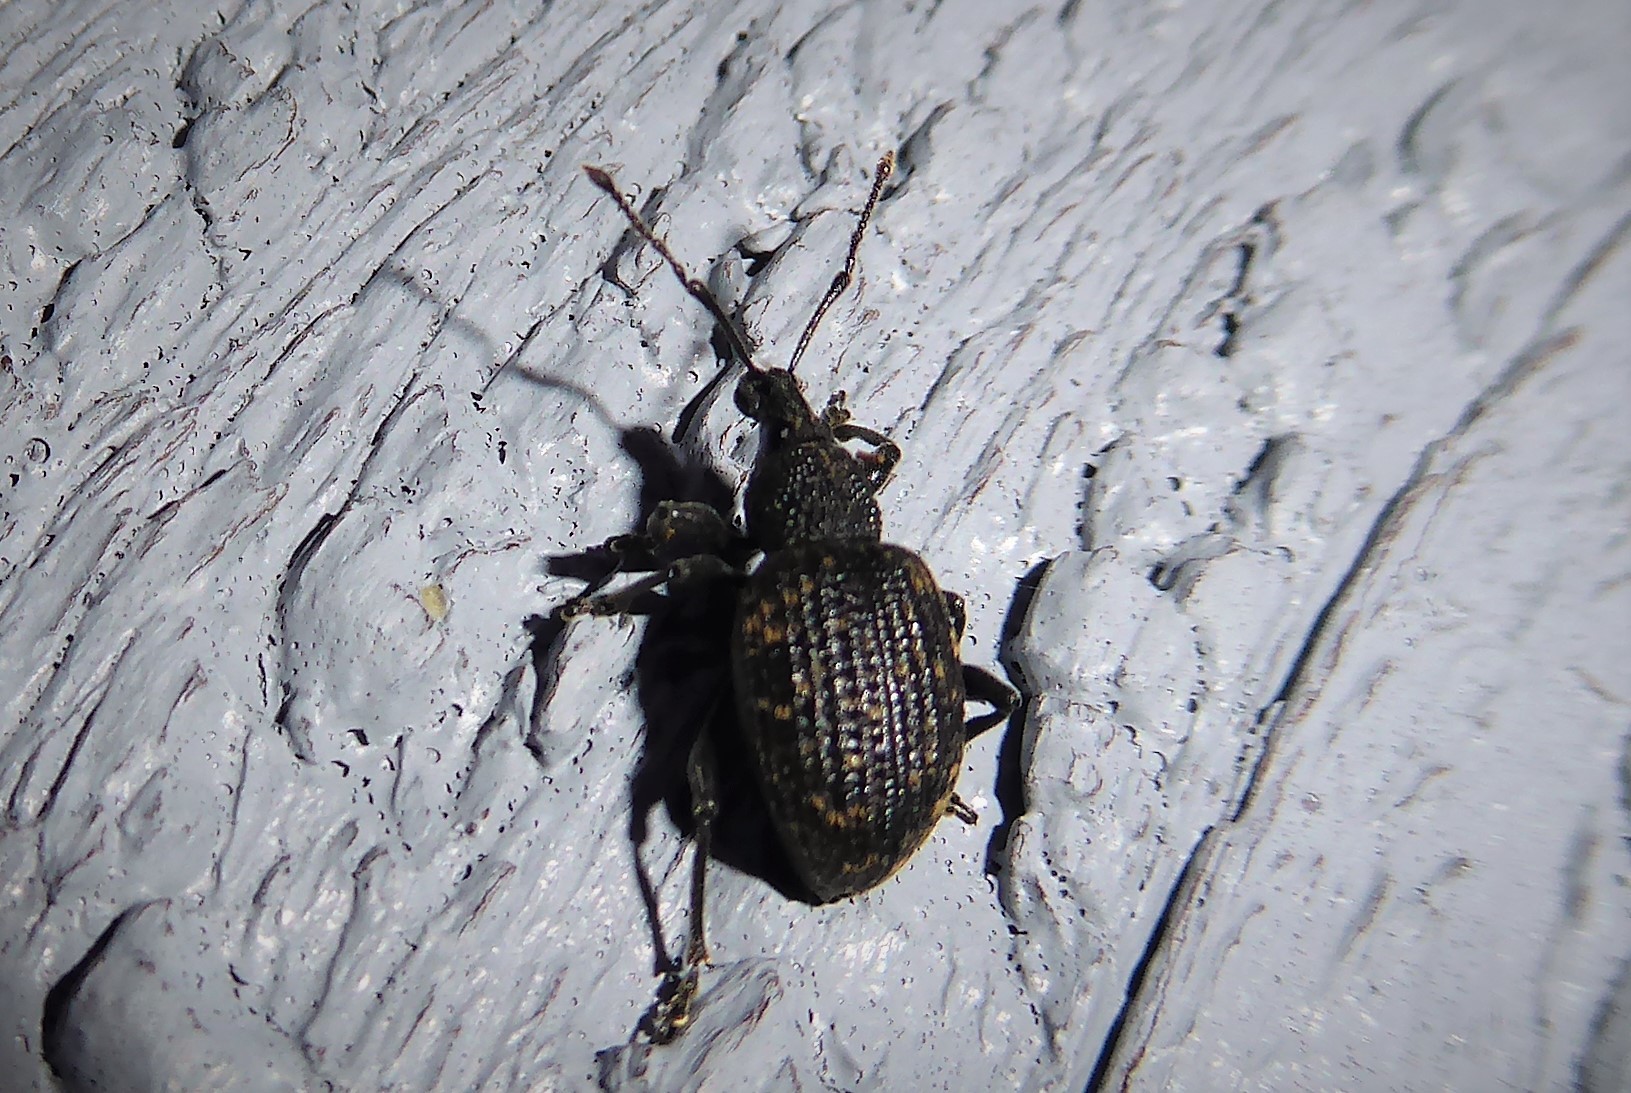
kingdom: Animalia
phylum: Arthropoda
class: Insecta
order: Coleoptera
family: Curculionidae
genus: Otiorhynchus
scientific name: Otiorhynchus sulcatus
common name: Black vine weevil
